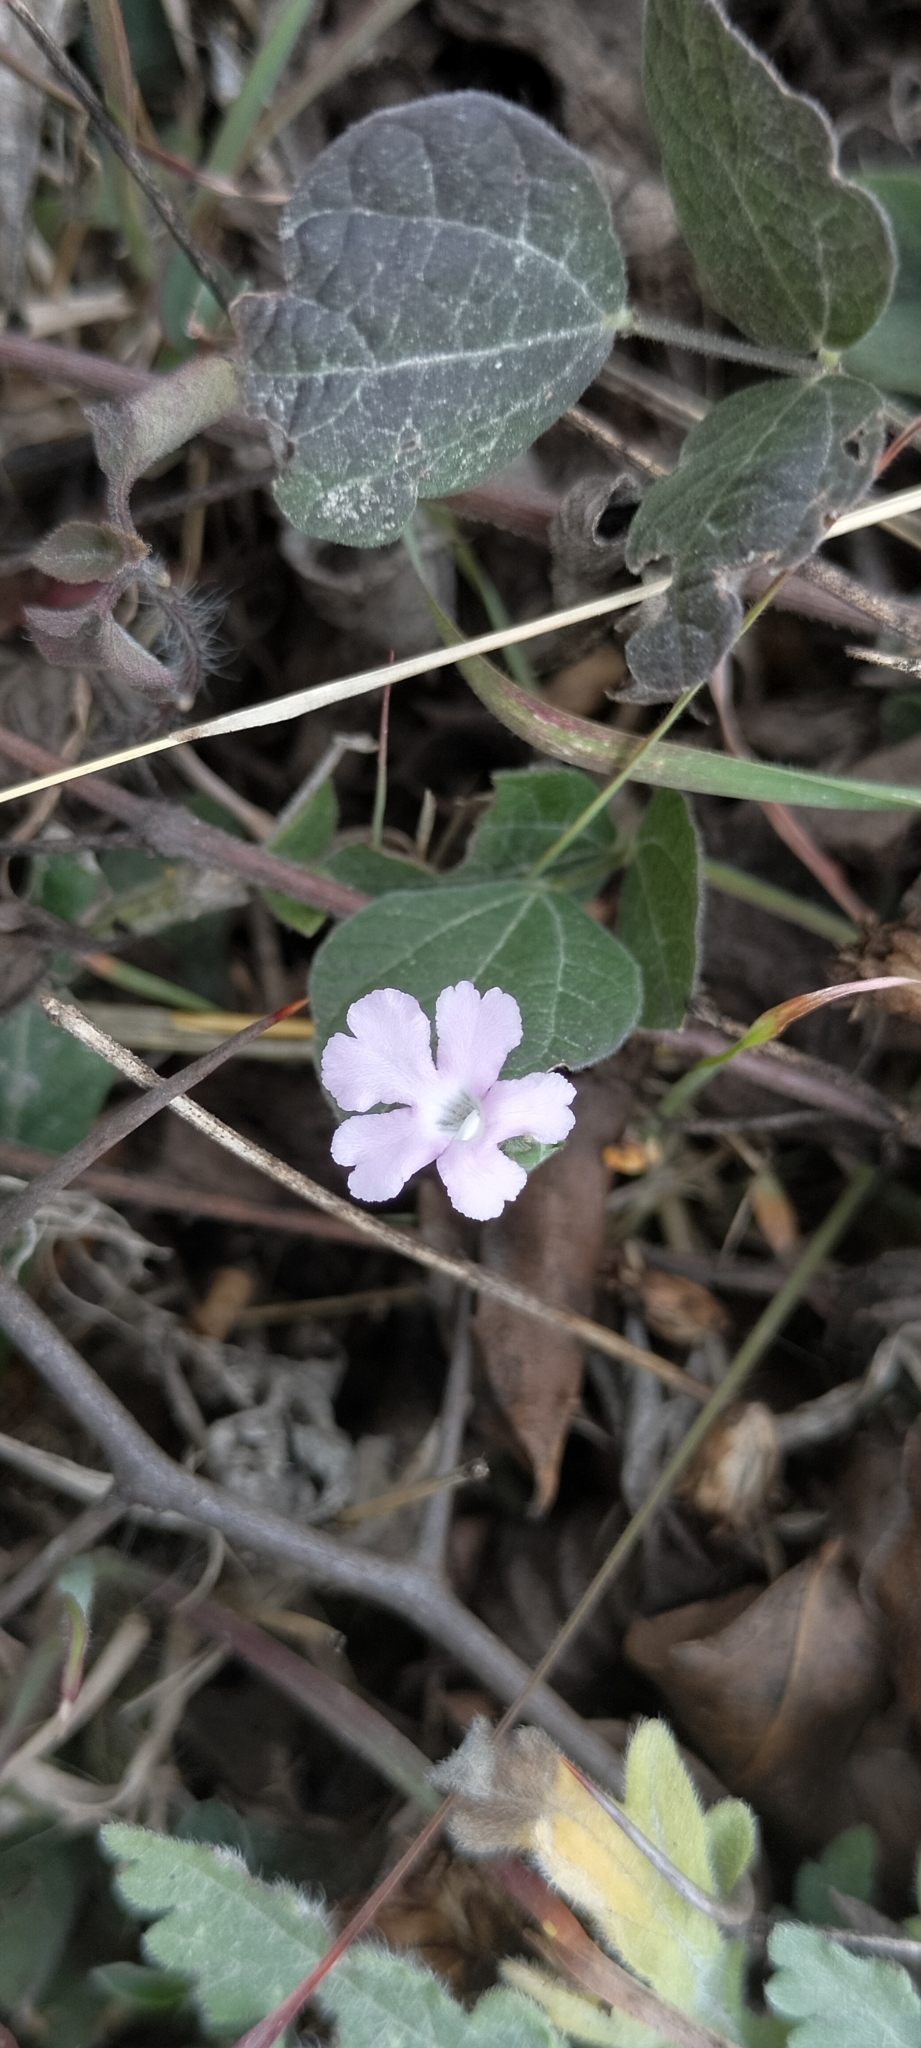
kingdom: Plantae
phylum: Tracheophyta
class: Magnoliopsida
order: Lamiales
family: Acanthaceae
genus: Elytraria
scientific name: Elytraria bromoides
